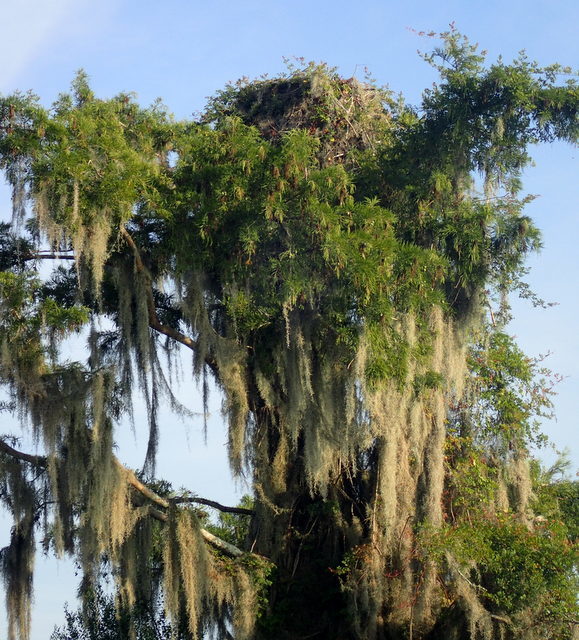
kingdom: Animalia
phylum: Chordata
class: Aves
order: Accipitriformes
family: Pandionidae
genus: Pandion
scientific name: Pandion haliaetus
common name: Osprey
